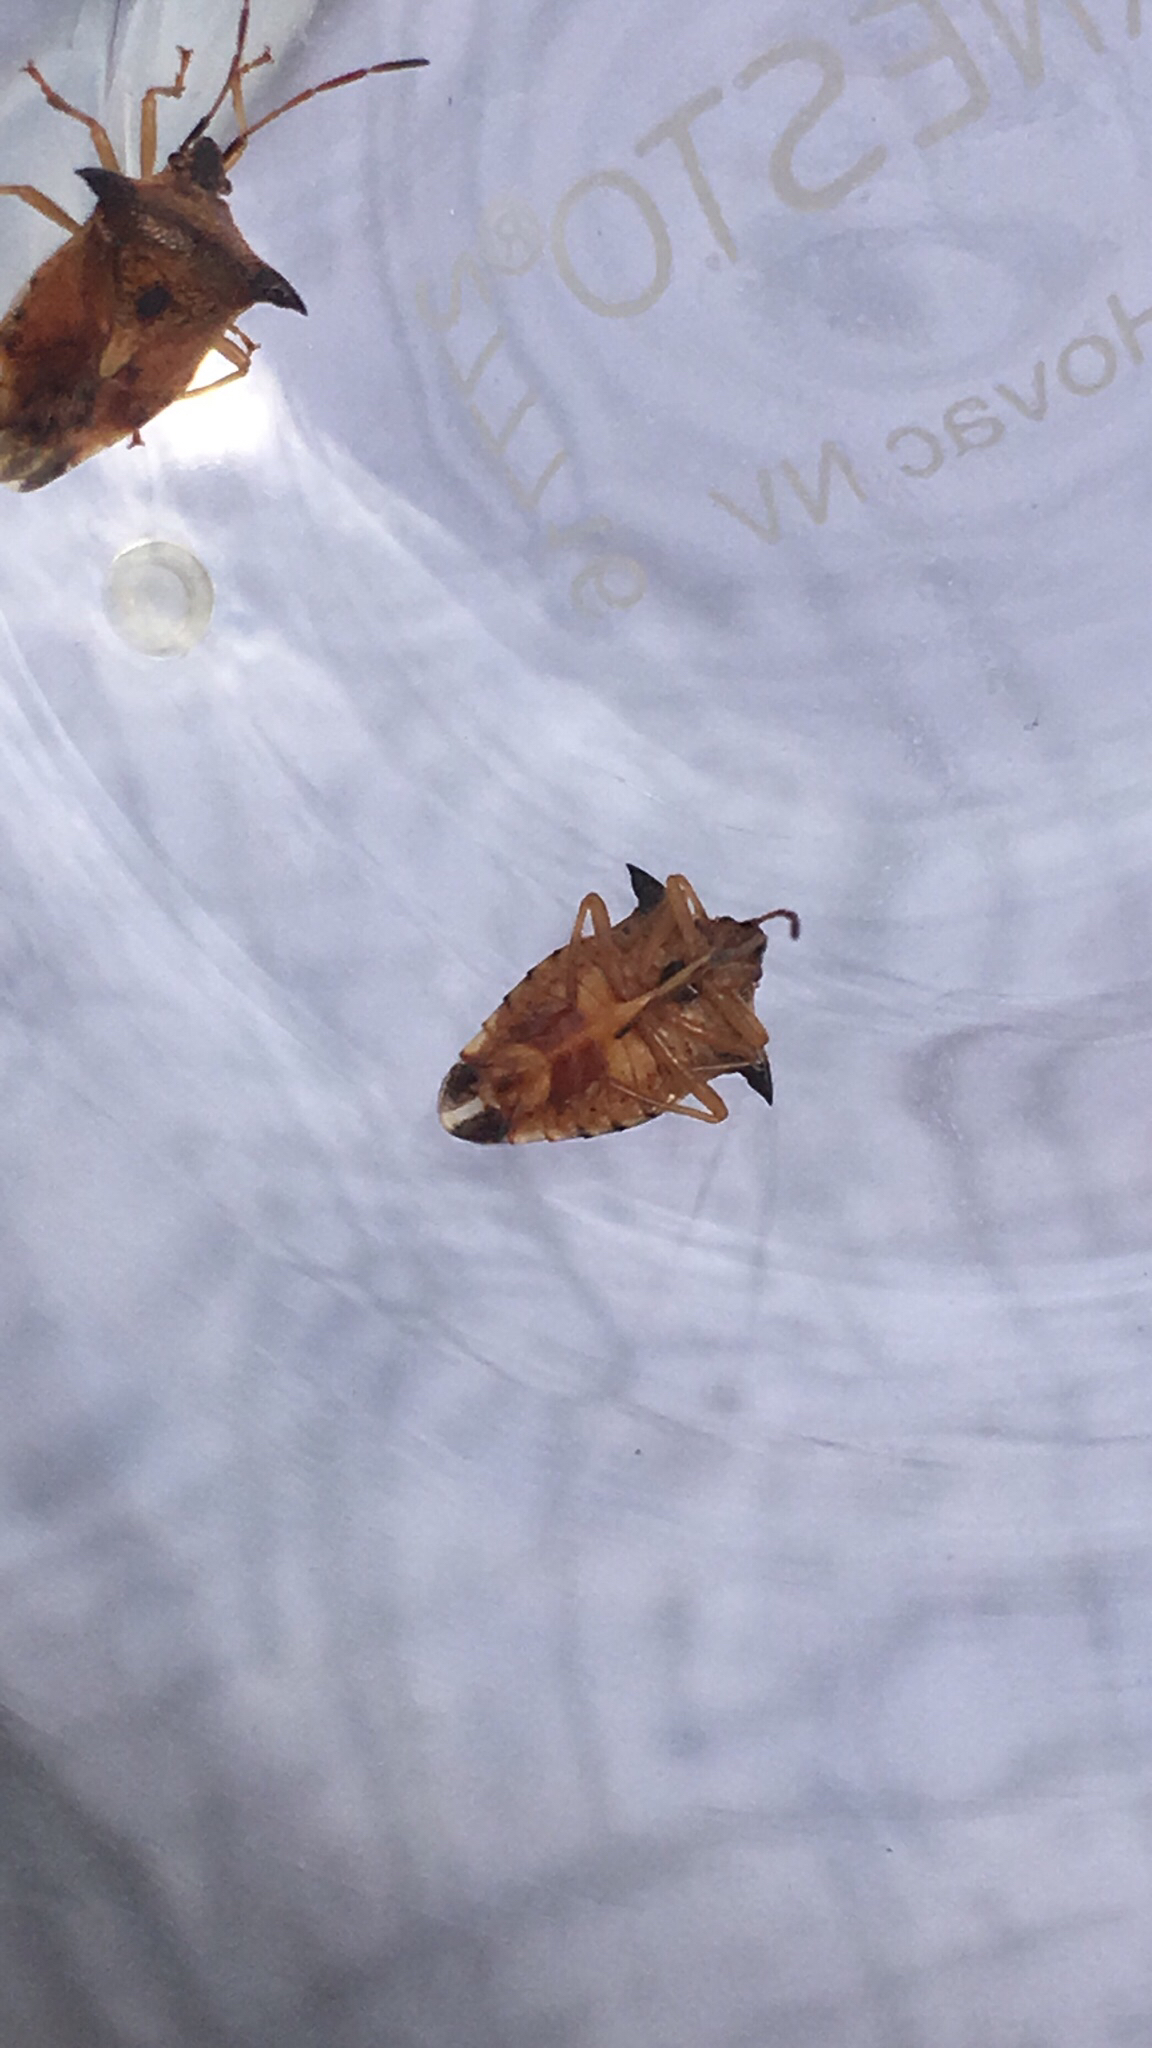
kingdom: Animalia
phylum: Arthropoda
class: Insecta
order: Hemiptera
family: Acanthosomatidae
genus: Elasmucha
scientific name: Elasmucha ferrugata
